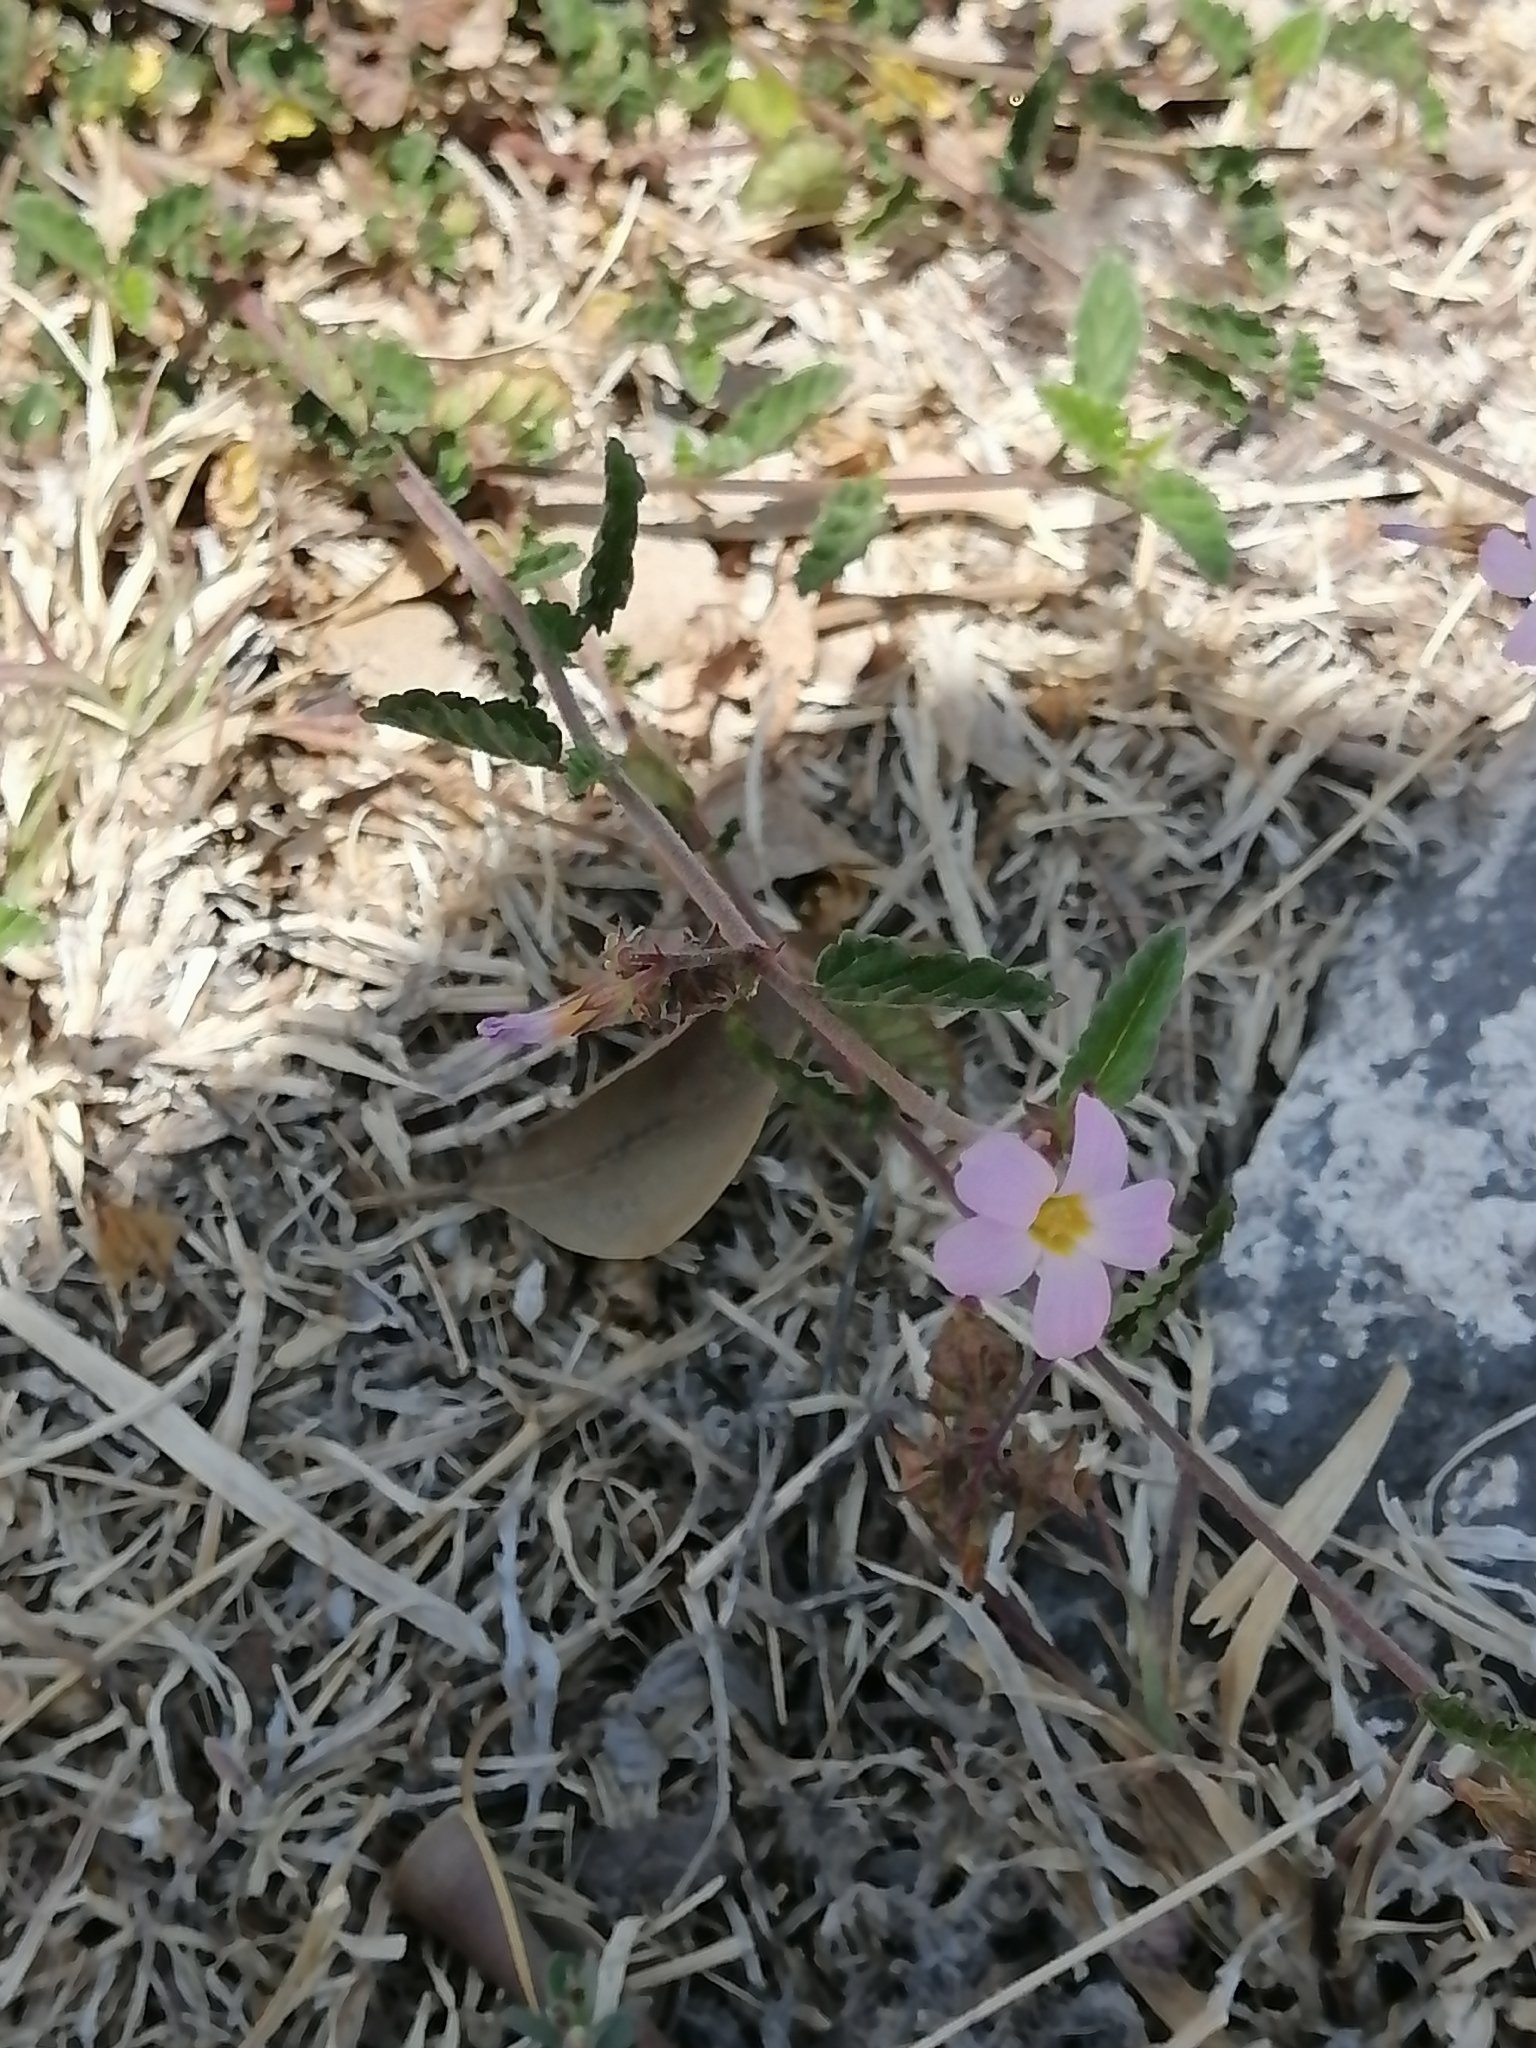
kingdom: Plantae
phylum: Tracheophyta
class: Magnoliopsida
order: Malvales
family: Malvaceae
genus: Melochia
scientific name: Melochia pyramidata
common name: Pyramidflower
